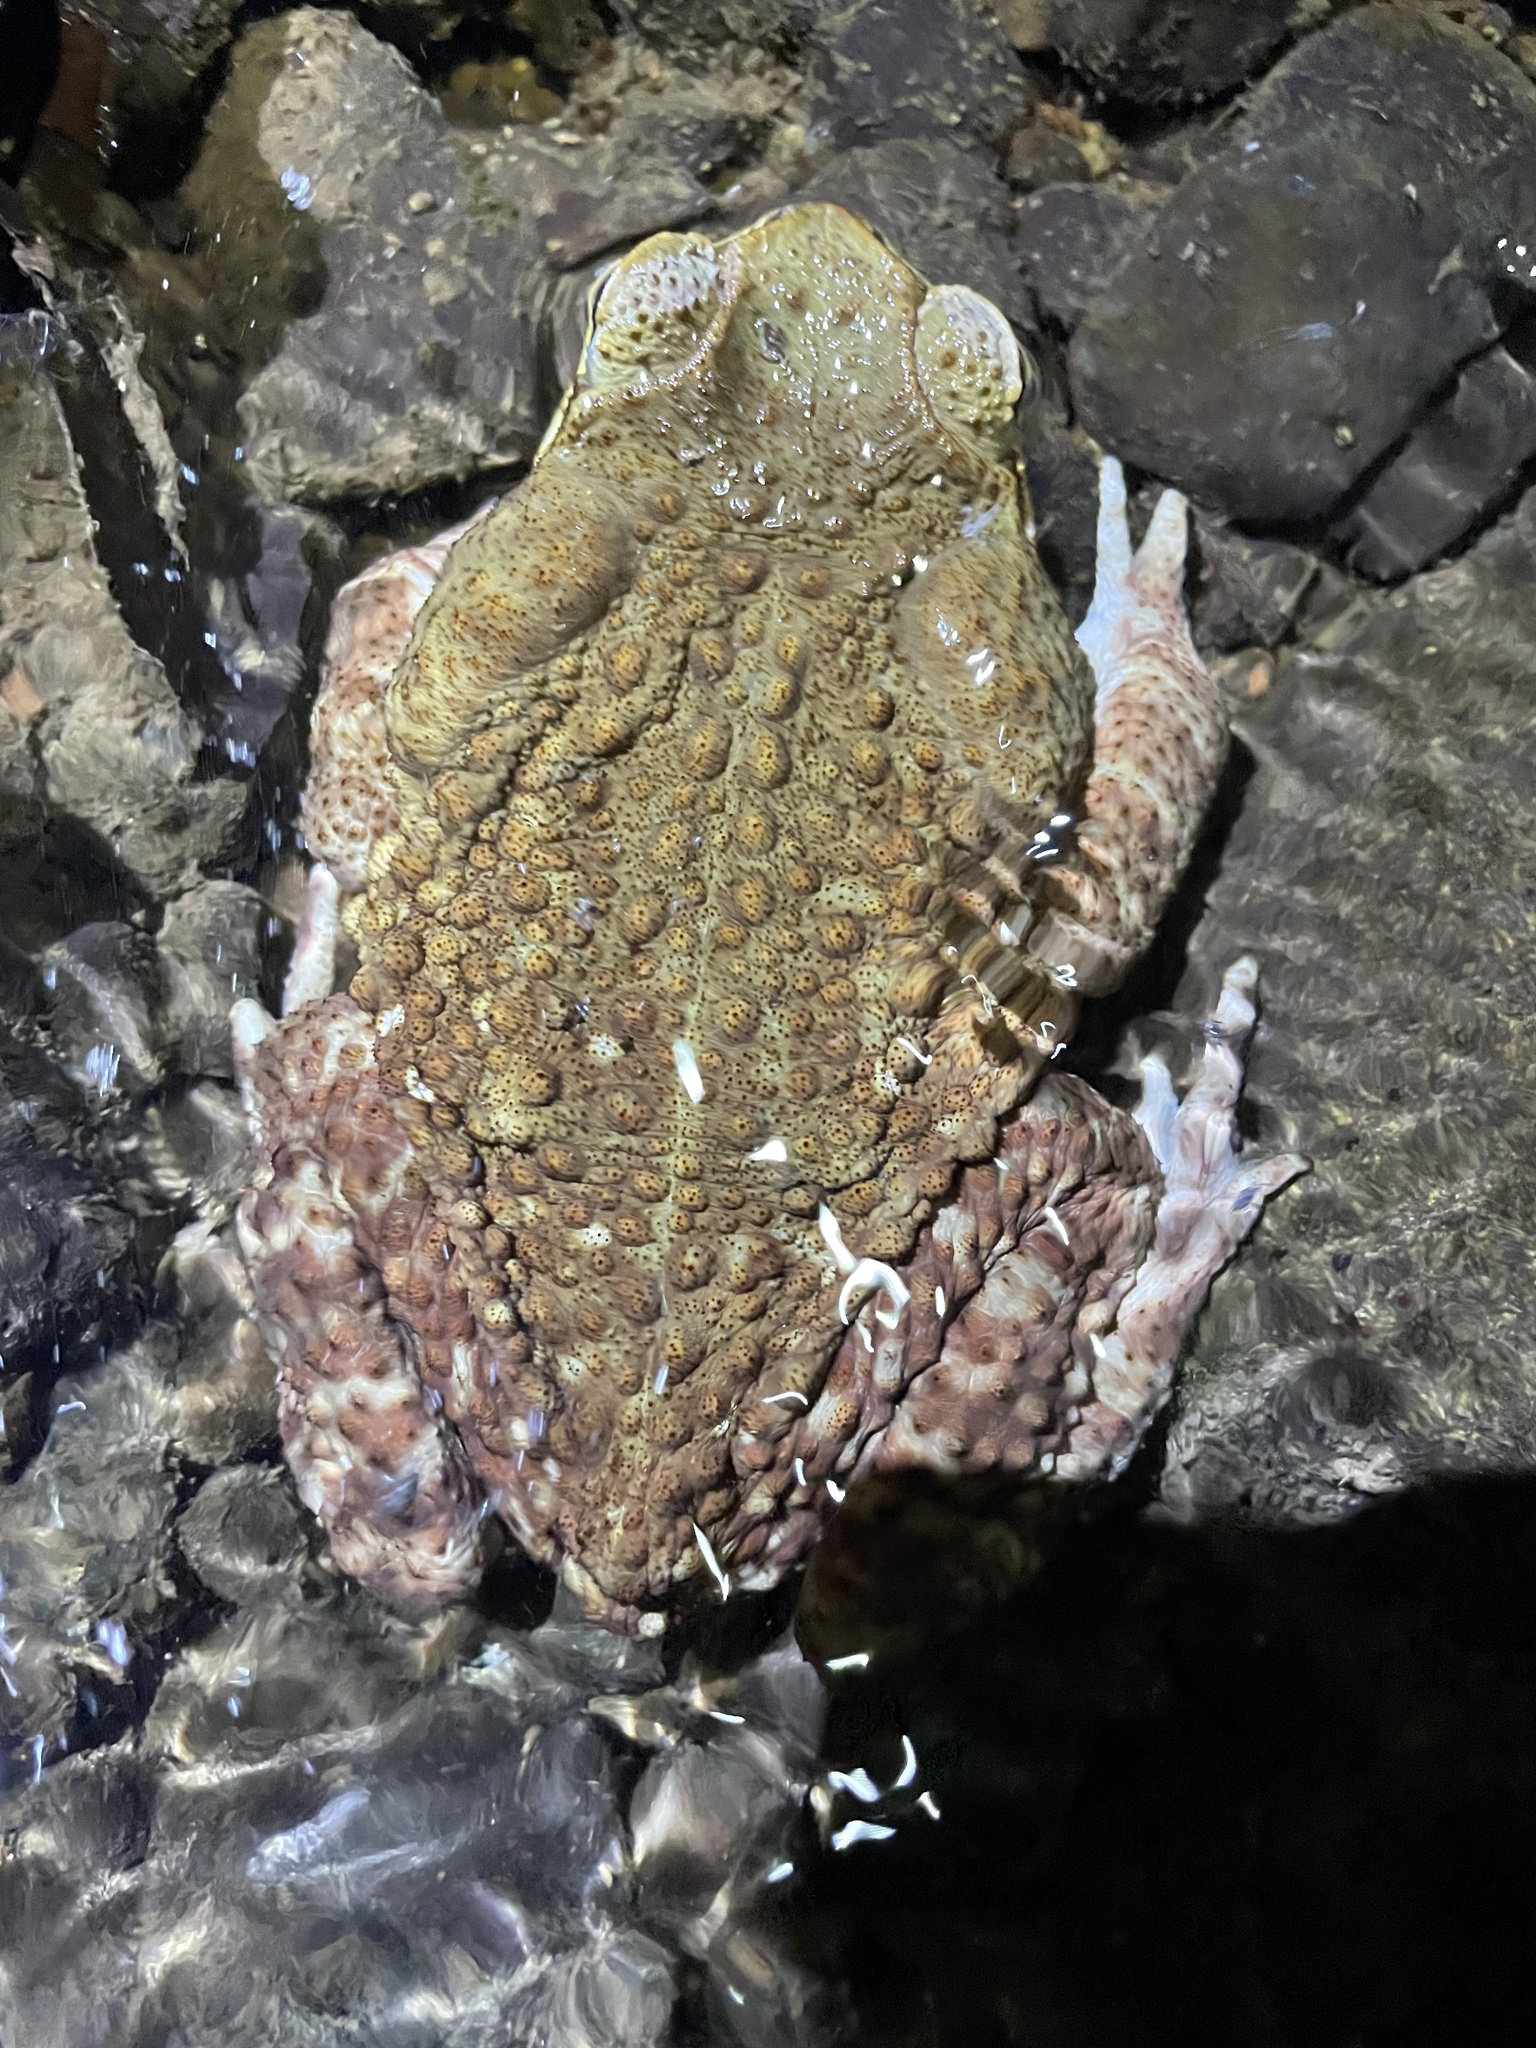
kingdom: Animalia
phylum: Chordata
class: Amphibia
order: Anura
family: Bufonidae
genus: Rhinella
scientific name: Rhinella horribilis
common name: Mesoamerican cane toad
